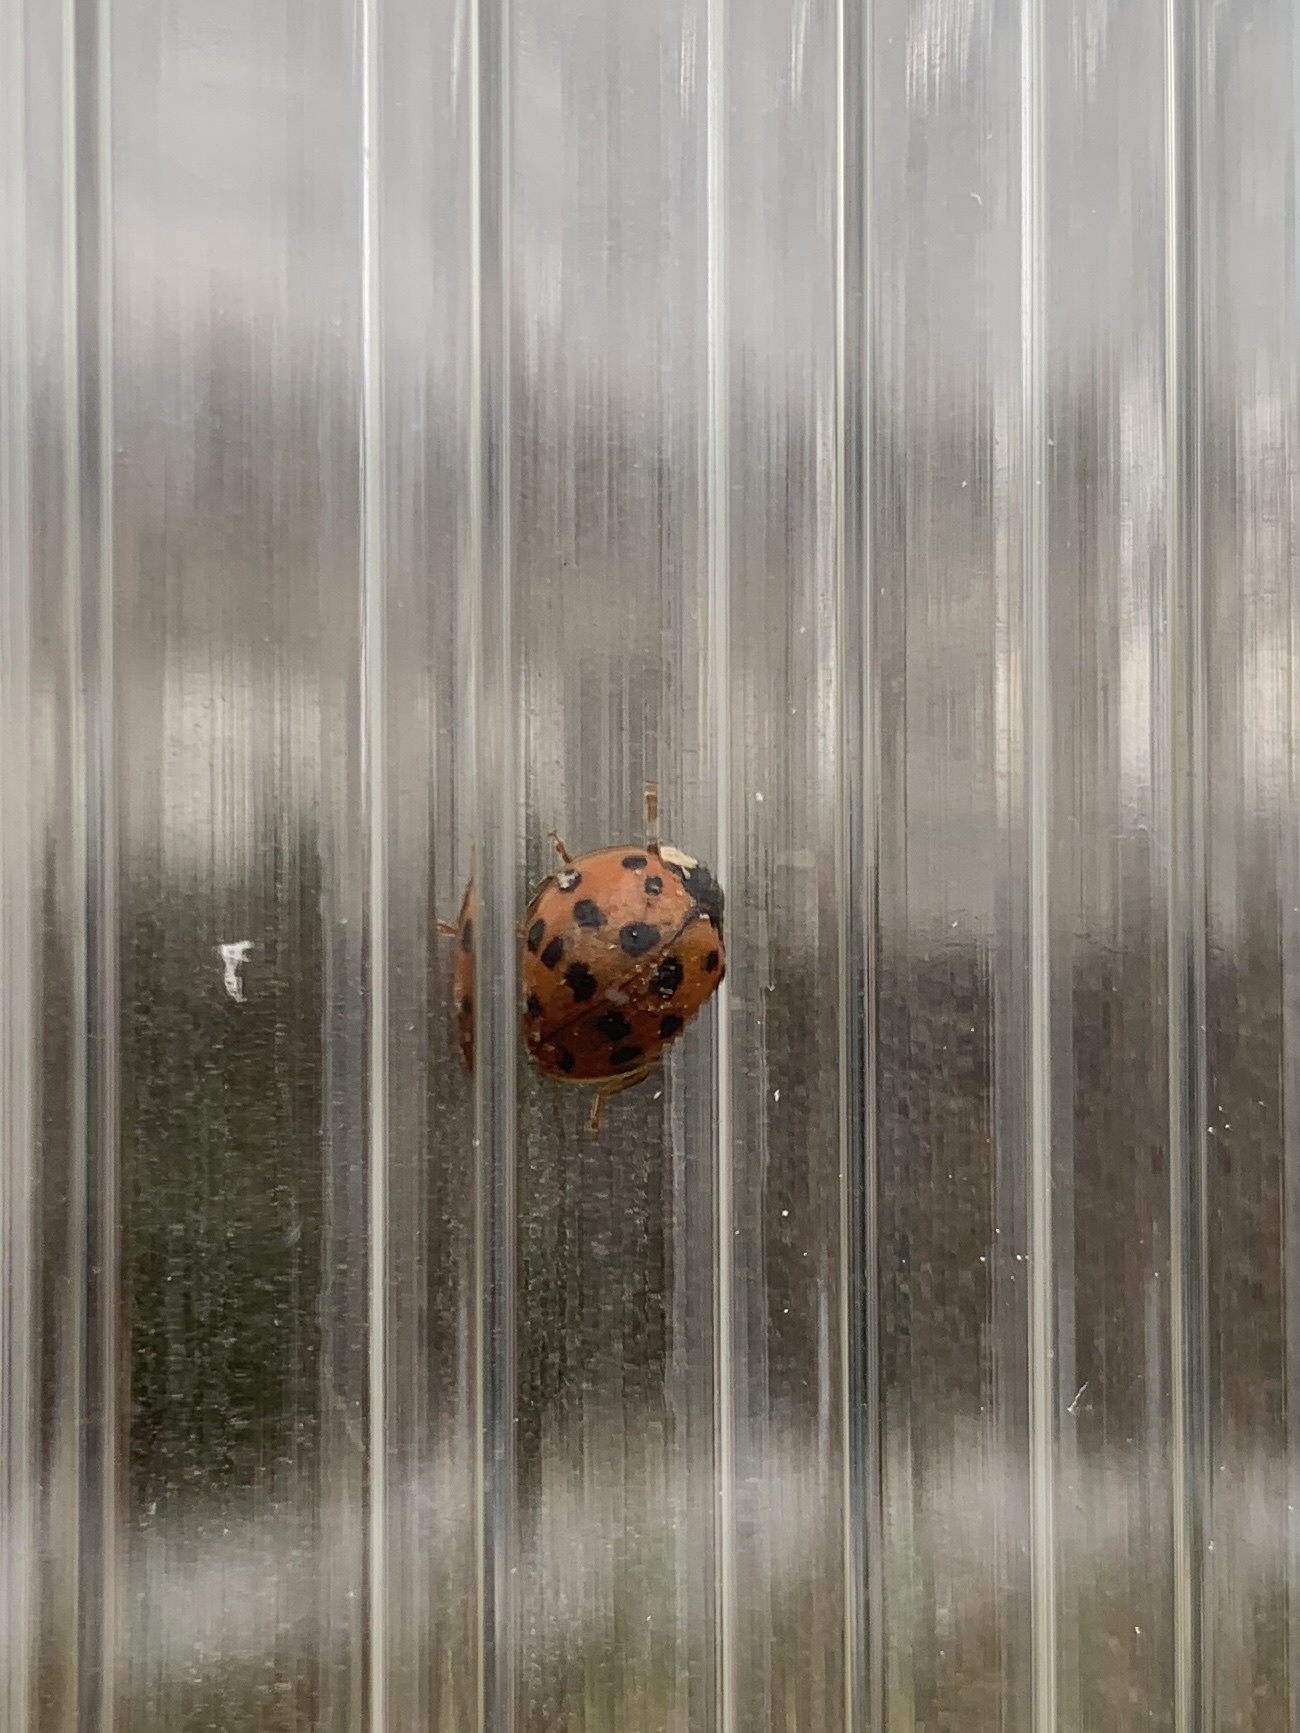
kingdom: Animalia
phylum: Arthropoda
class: Insecta
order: Coleoptera
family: Coccinellidae
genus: Harmonia
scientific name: Harmonia axyridis
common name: Harlequin ladybird
